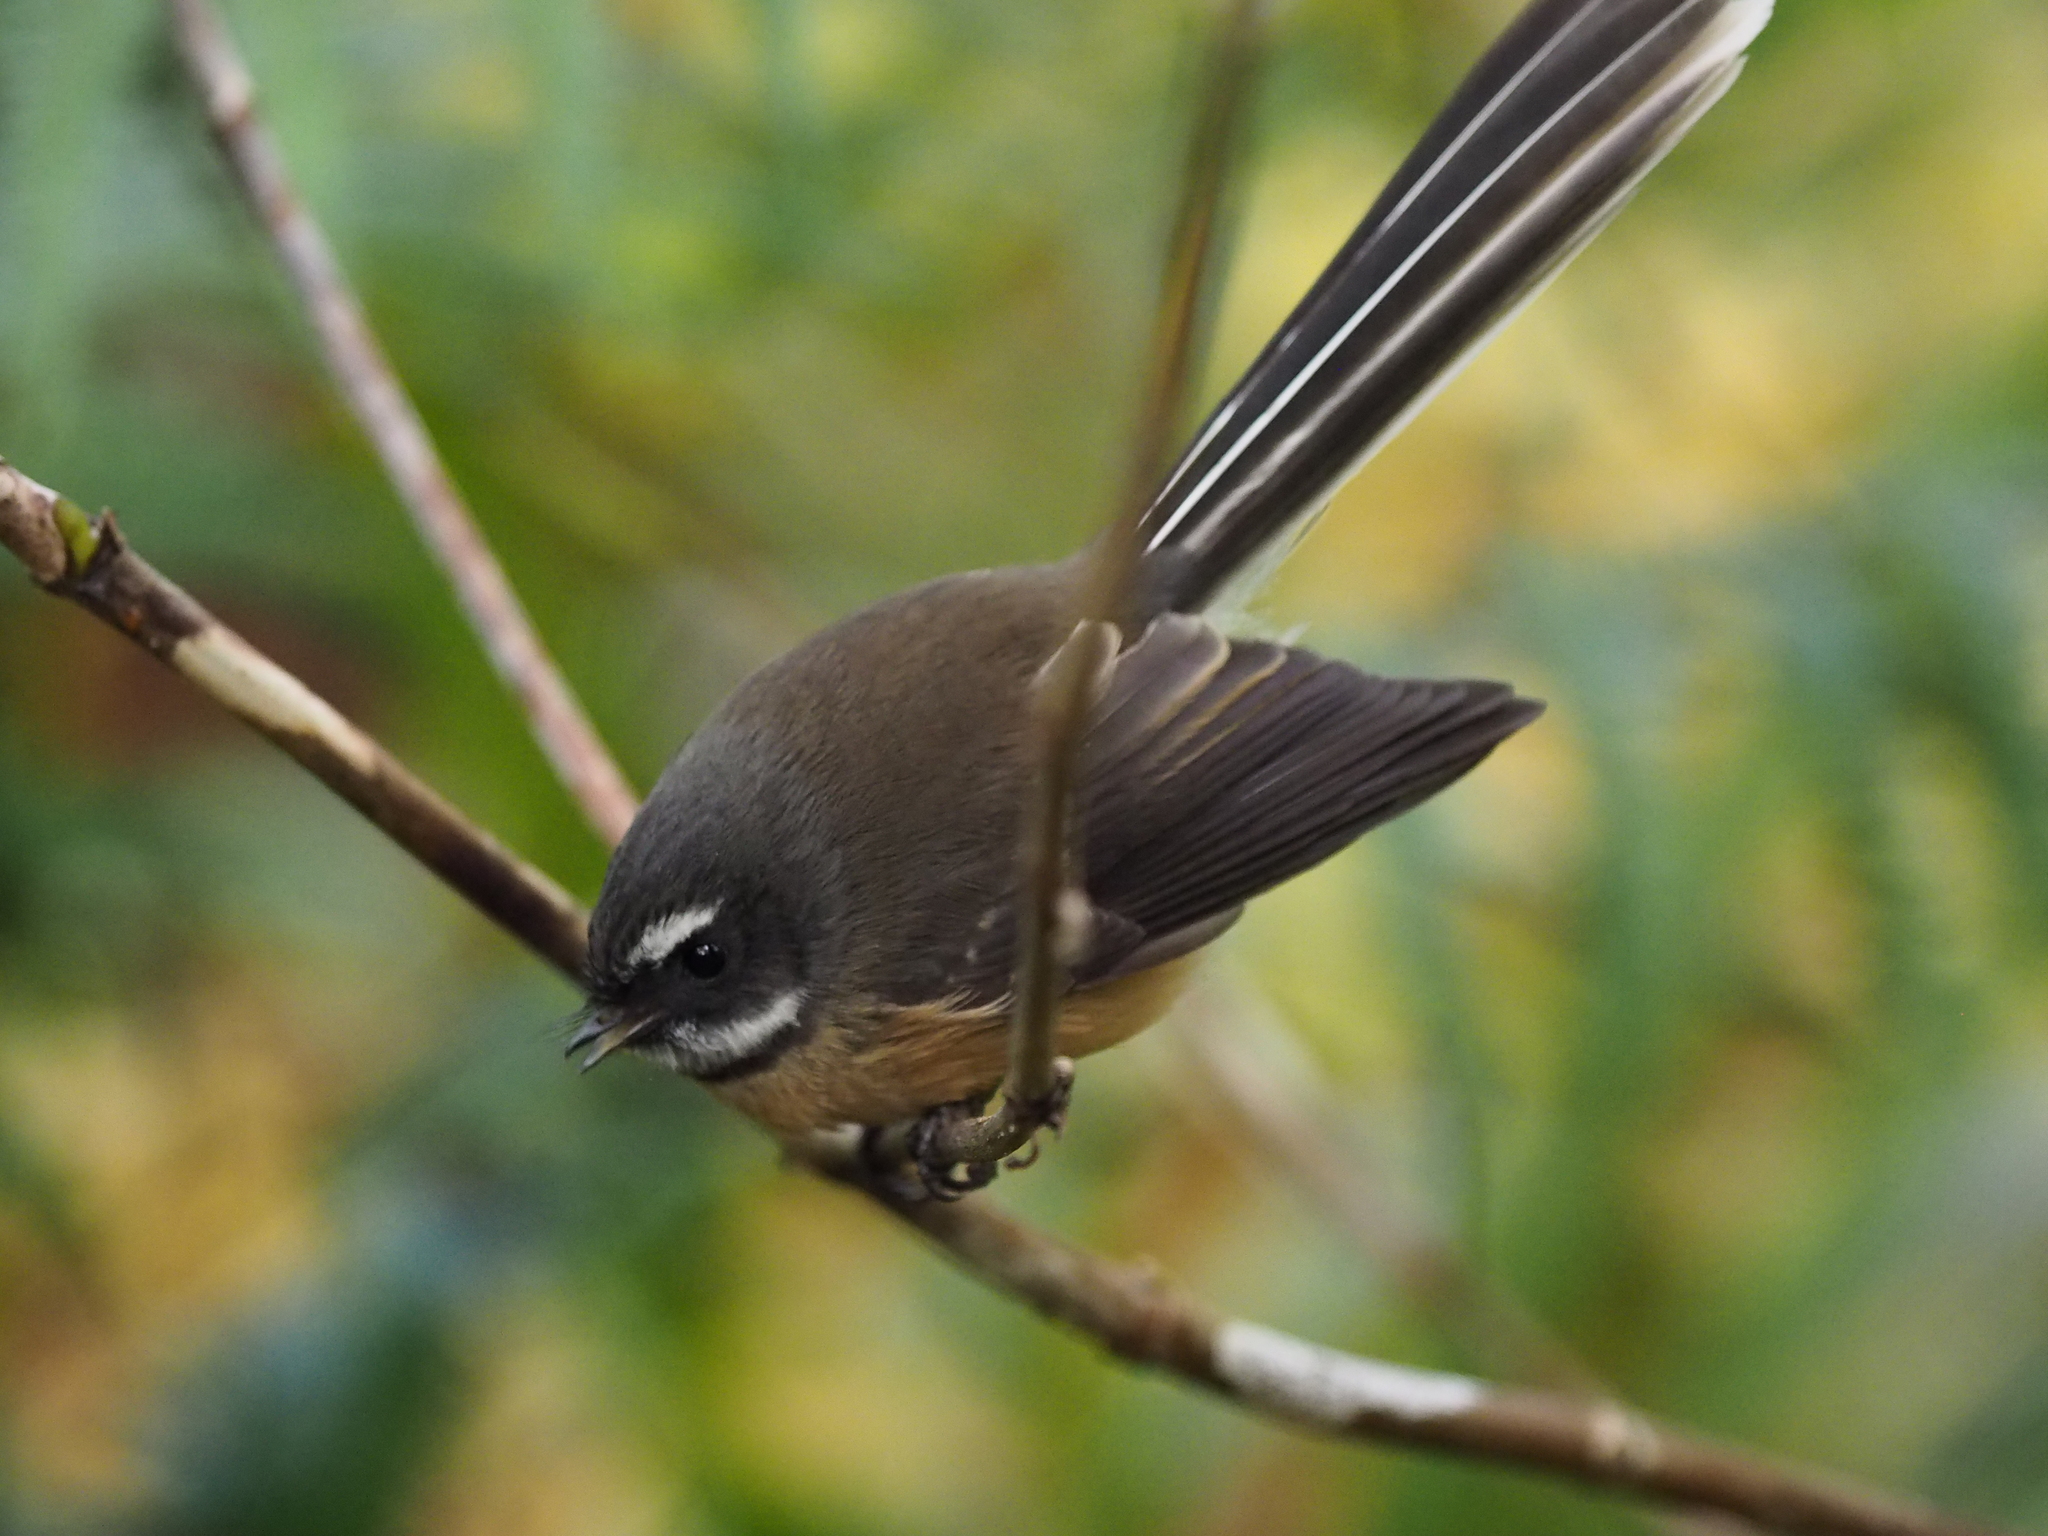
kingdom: Animalia
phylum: Chordata
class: Aves
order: Passeriformes
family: Rhipiduridae
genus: Rhipidura
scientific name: Rhipidura fuliginosa
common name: New zealand fantail
